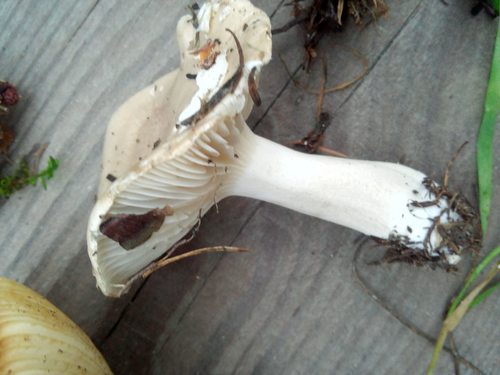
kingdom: Fungi
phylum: Basidiomycota
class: Agaricomycetes
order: Agaricales
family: Hygrophoraceae
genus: Hygrophorus
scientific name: Hygrophorus
